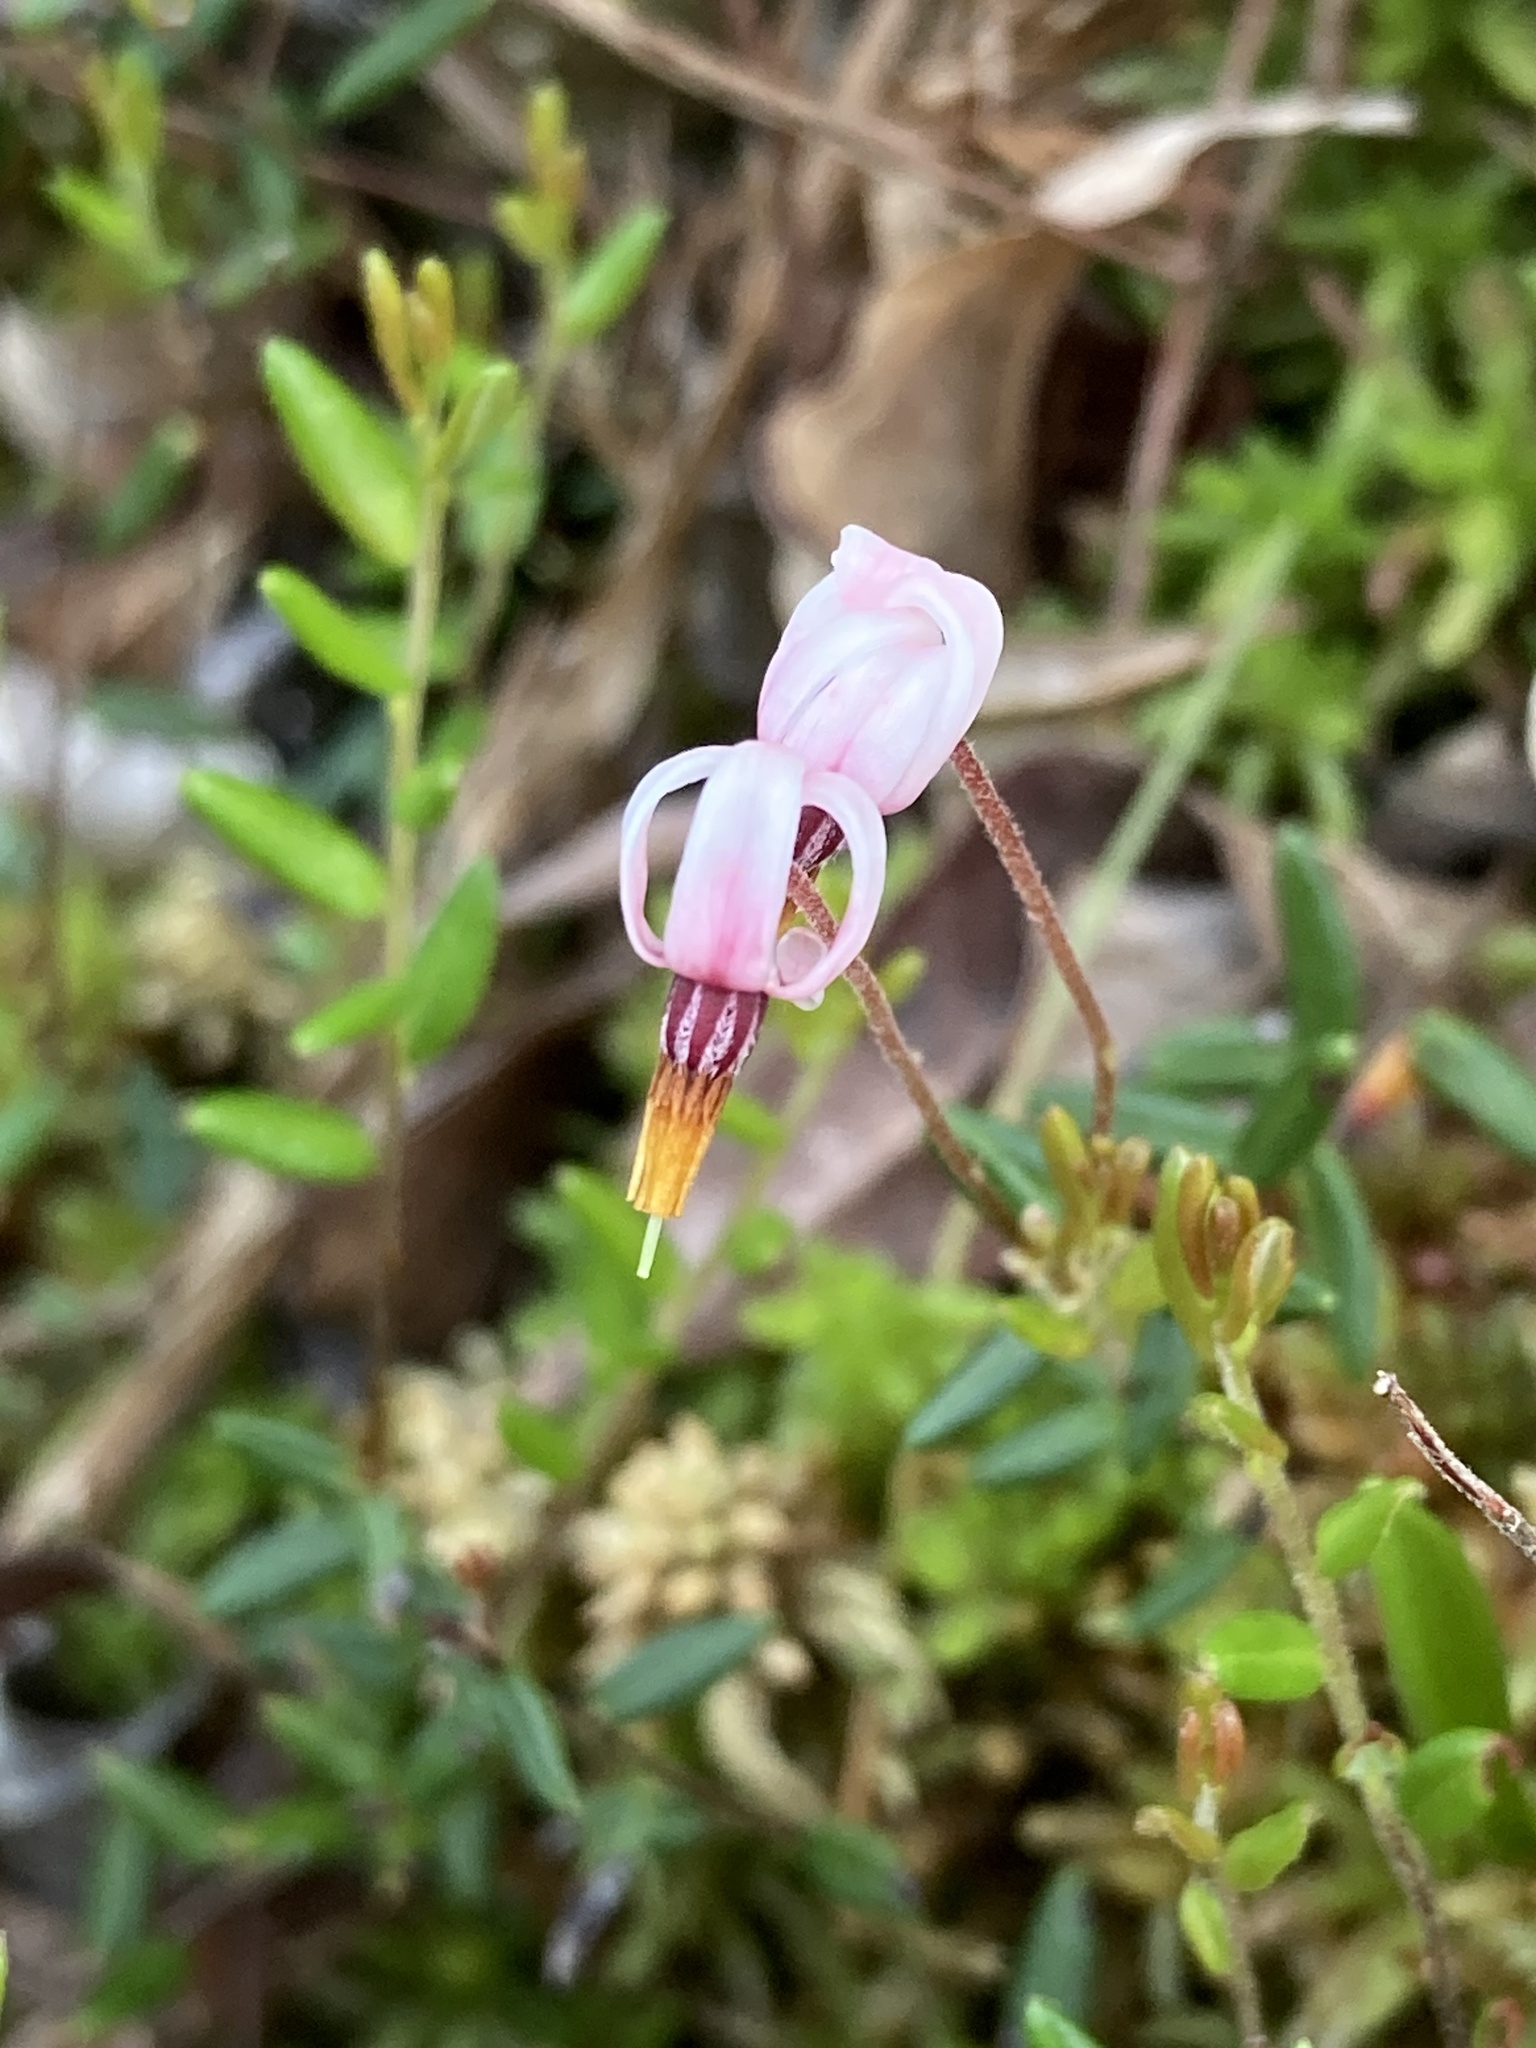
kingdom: Plantae
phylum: Tracheophyta
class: Magnoliopsida
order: Ericales
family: Ericaceae
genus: Vaccinium
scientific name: Vaccinium oxycoccos
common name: Cranberry
